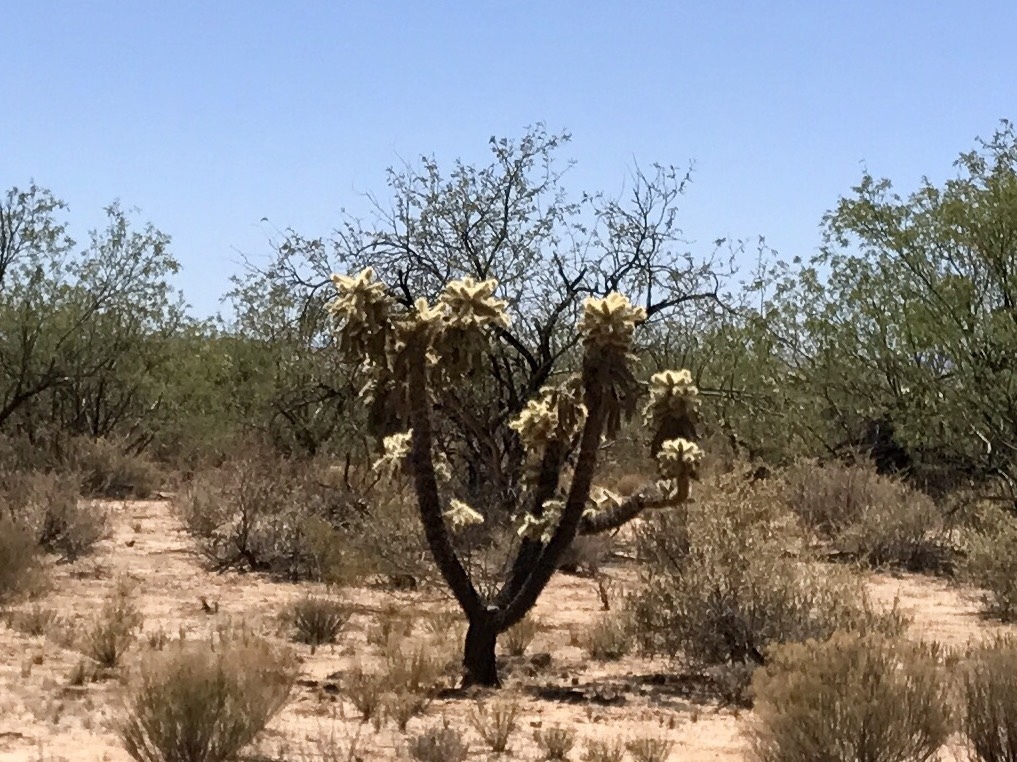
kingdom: Plantae
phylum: Tracheophyta
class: Magnoliopsida
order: Caryophyllales
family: Cactaceae
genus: Cylindropuntia
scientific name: Cylindropuntia fulgida
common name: Jumping cholla
